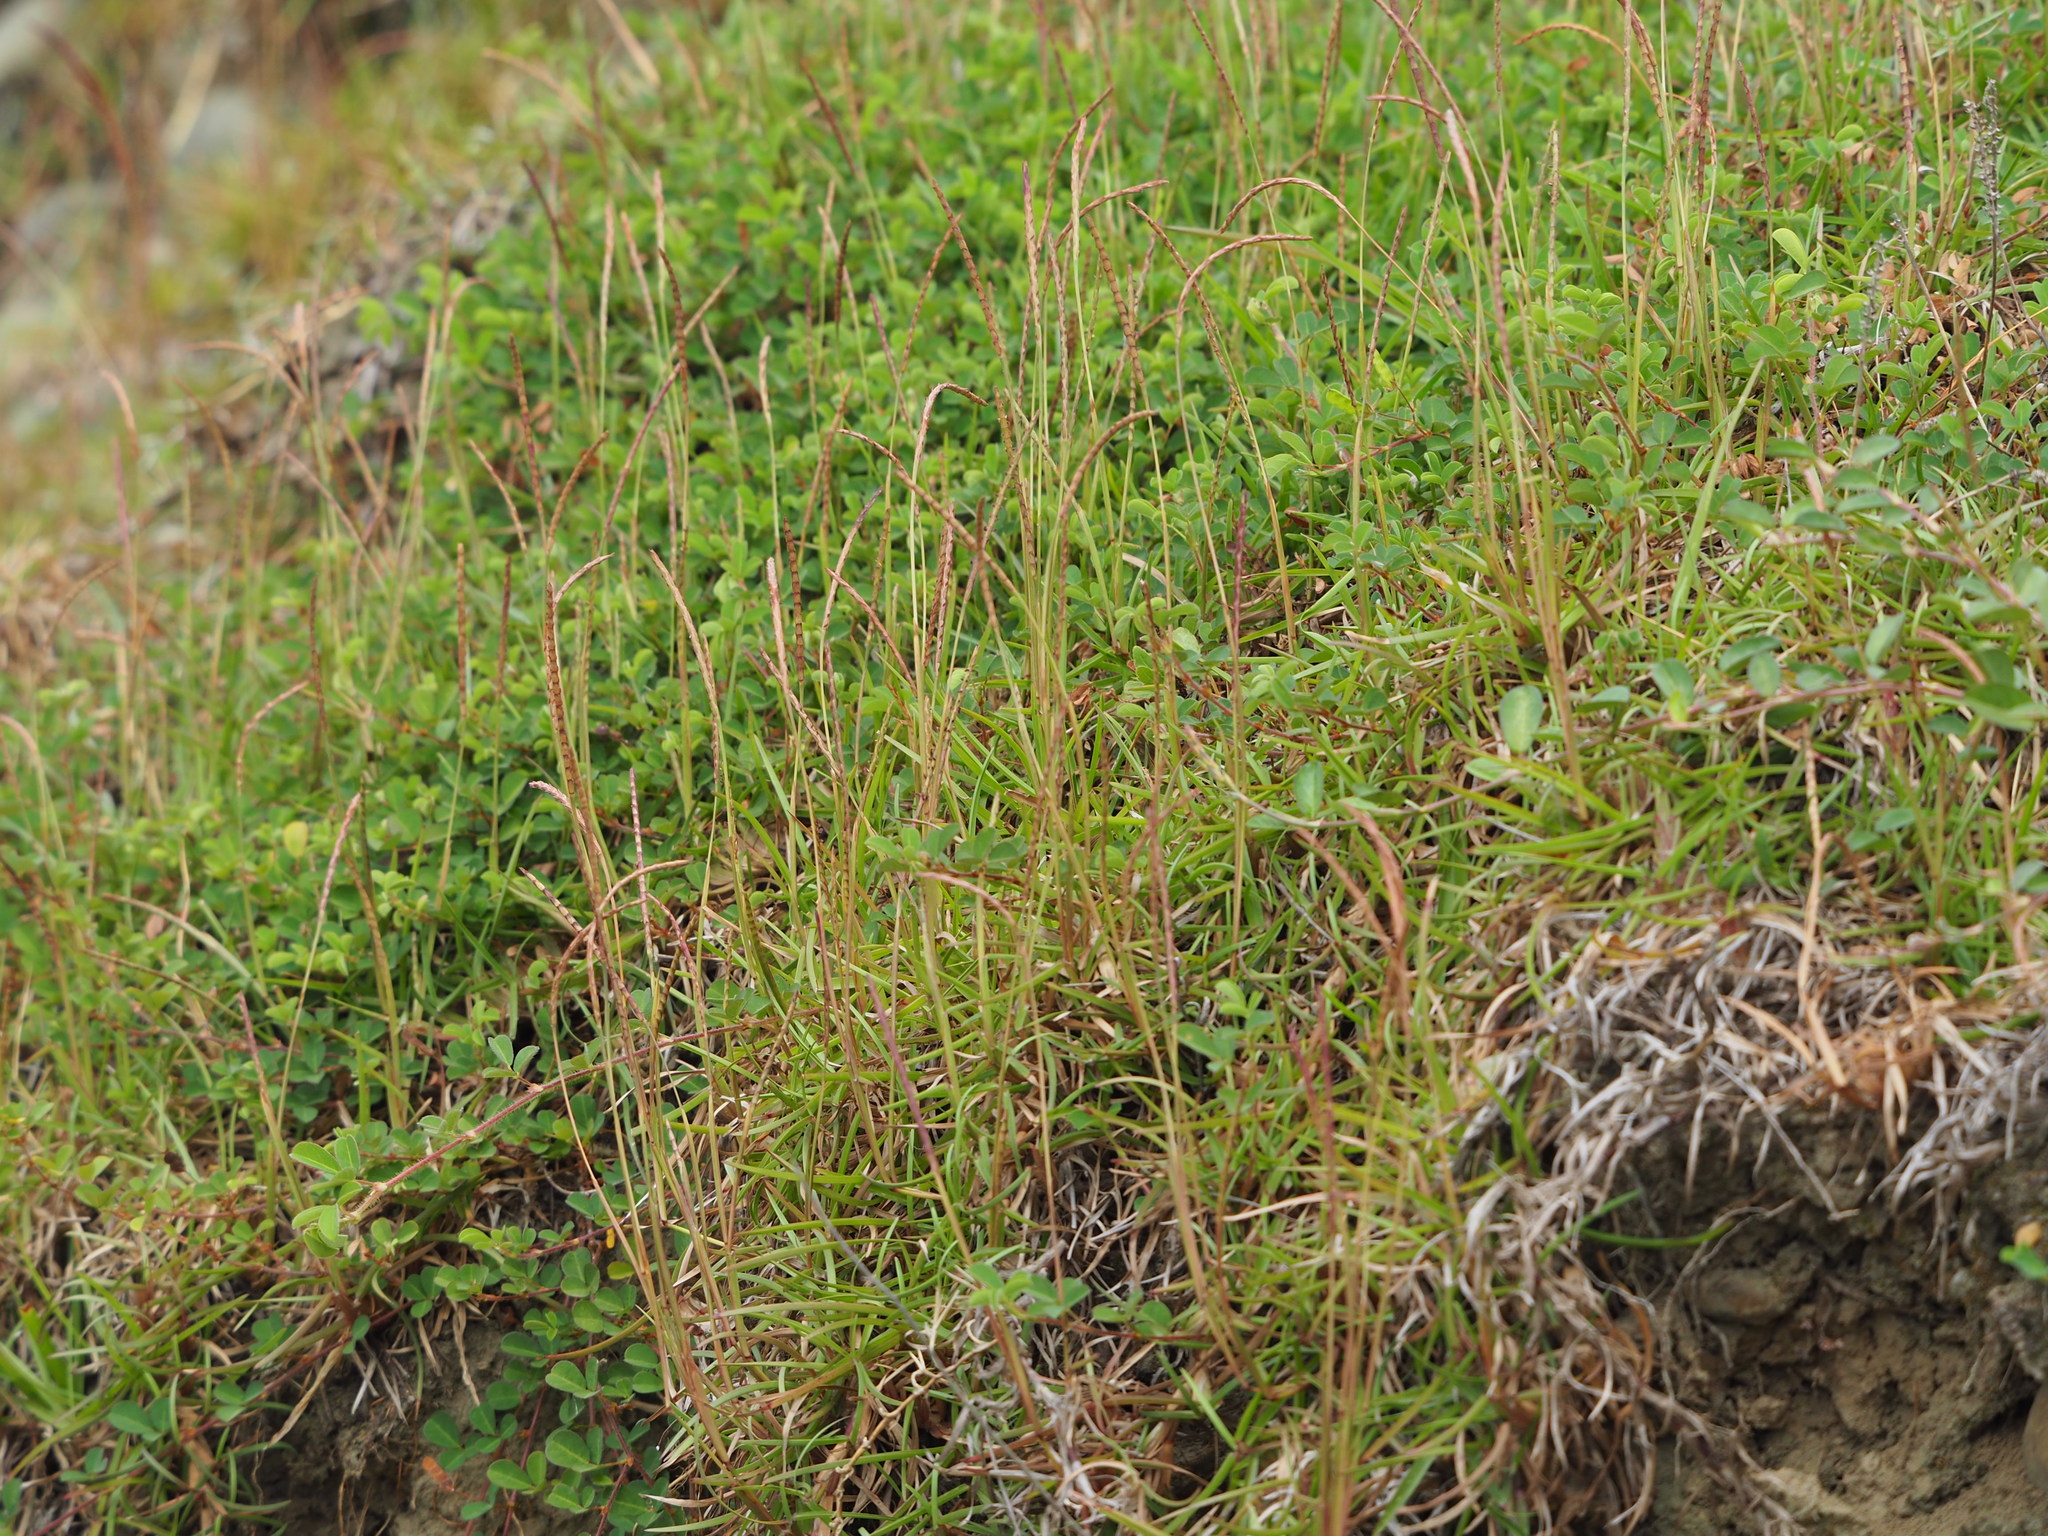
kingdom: Plantae
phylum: Tracheophyta
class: Liliopsida
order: Poales
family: Poaceae
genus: Eremochloa
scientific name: Eremochloa ophiuroides
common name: Centipede grass
